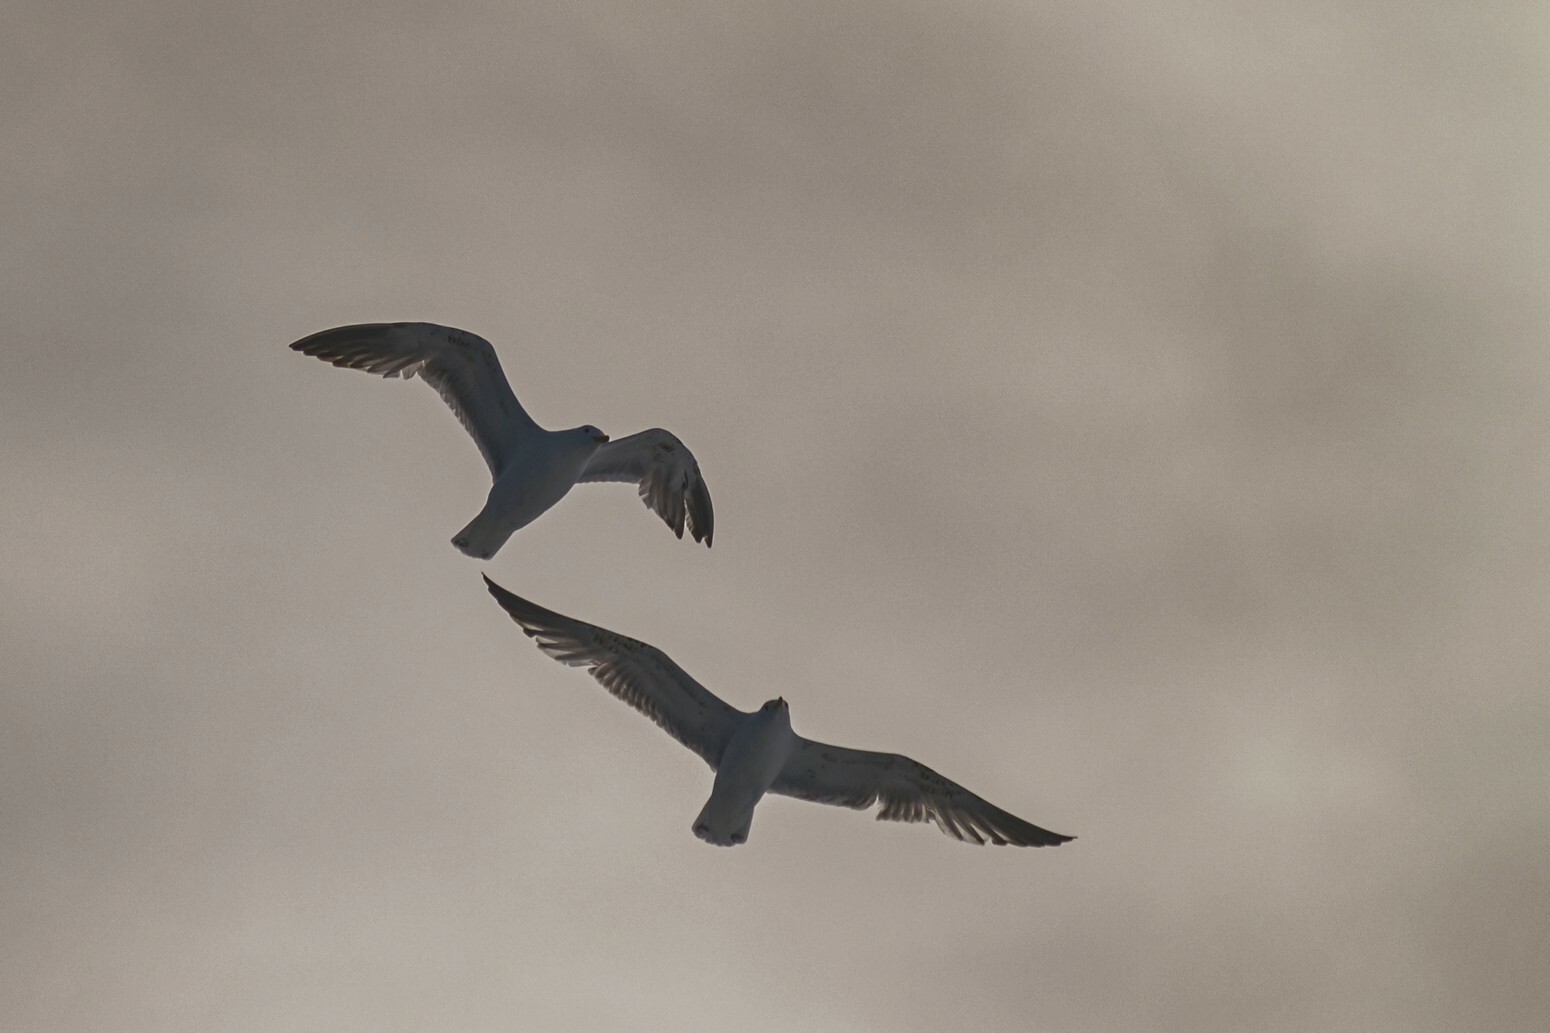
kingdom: Animalia
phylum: Chordata
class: Aves
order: Charadriiformes
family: Laridae
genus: Larus
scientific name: Larus argentatus
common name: Herring gull
